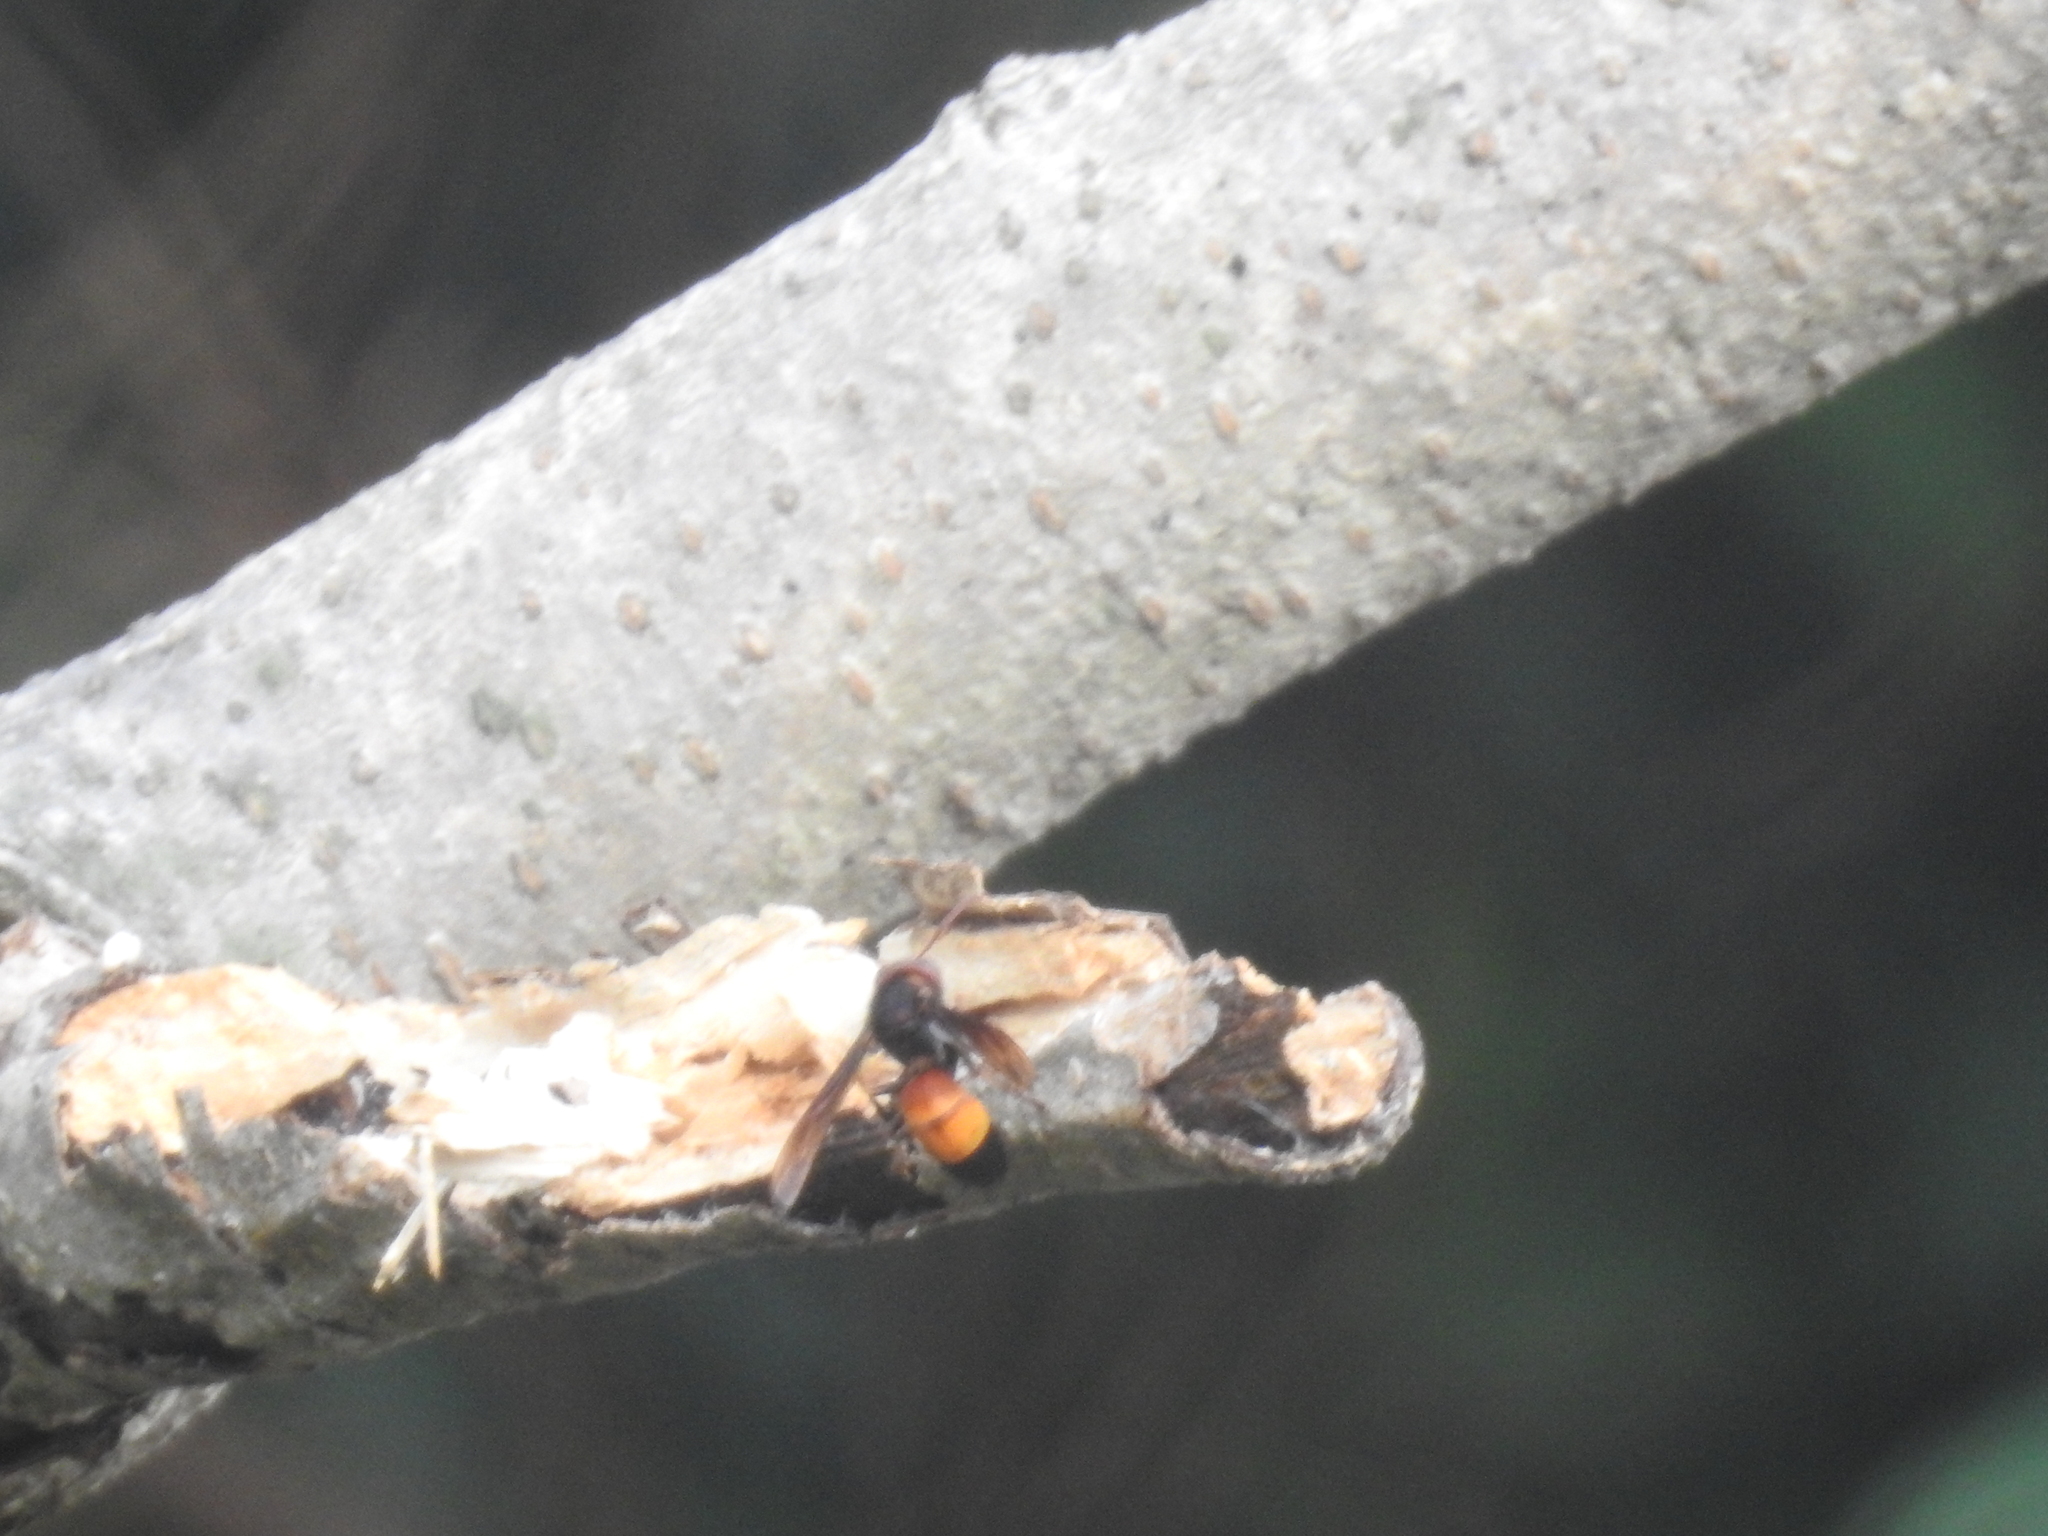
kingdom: Animalia
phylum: Arthropoda
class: Insecta
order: Hymenoptera
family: Vespidae
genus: Vespa
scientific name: Vespa affinis
